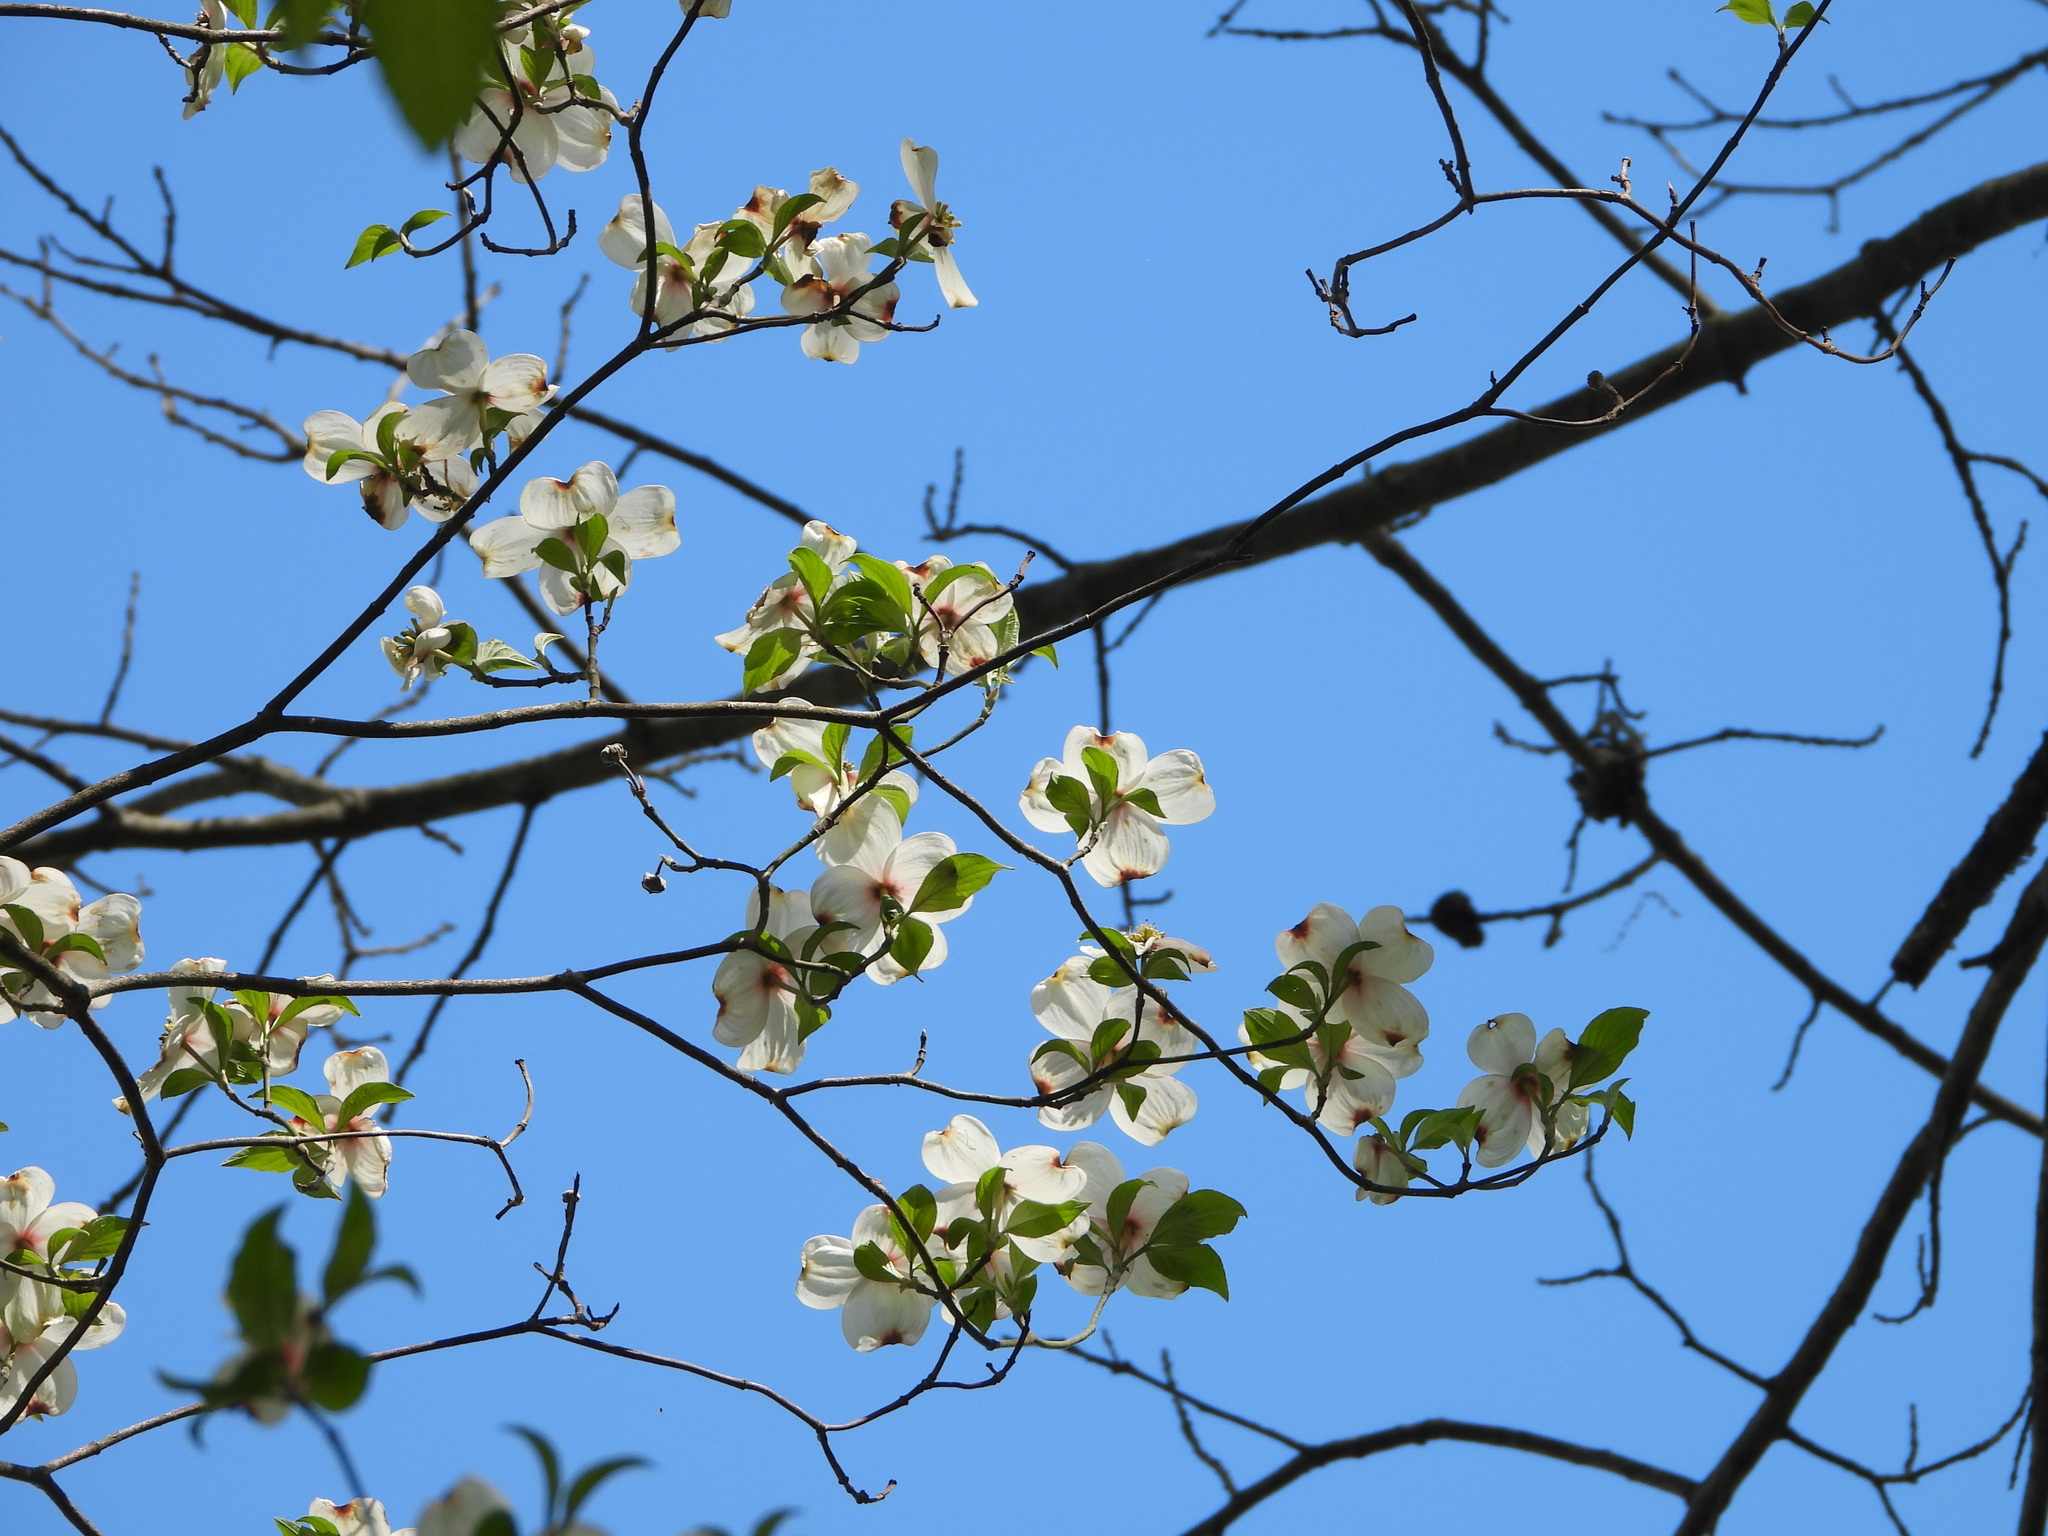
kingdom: Plantae
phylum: Tracheophyta
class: Magnoliopsida
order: Cornales
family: Cornaceae
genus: Cornus
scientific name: Cornus florida
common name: Flowering dogwood
